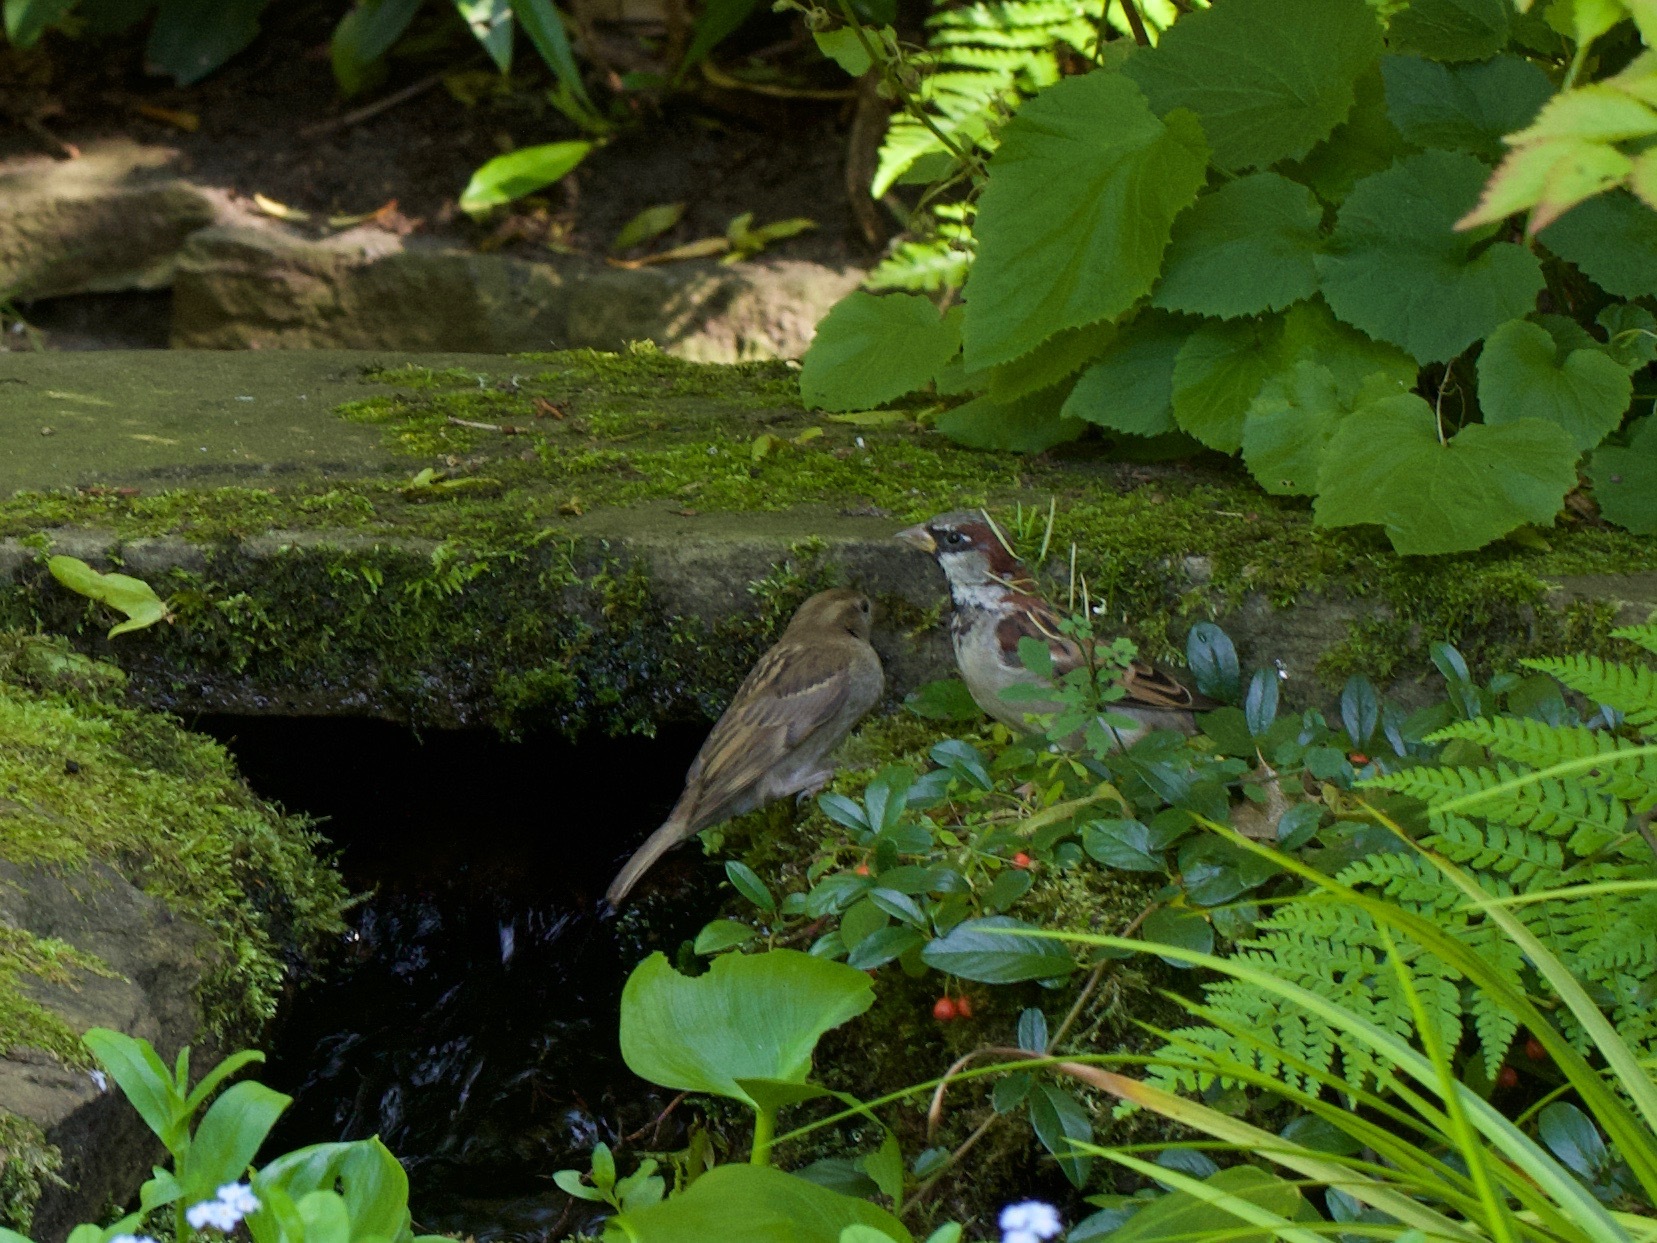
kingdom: Animalia
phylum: Chordata
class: Aves
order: Passeriformes
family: Passeridae
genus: Passer
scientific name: Passer domesticus
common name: House sparrow
